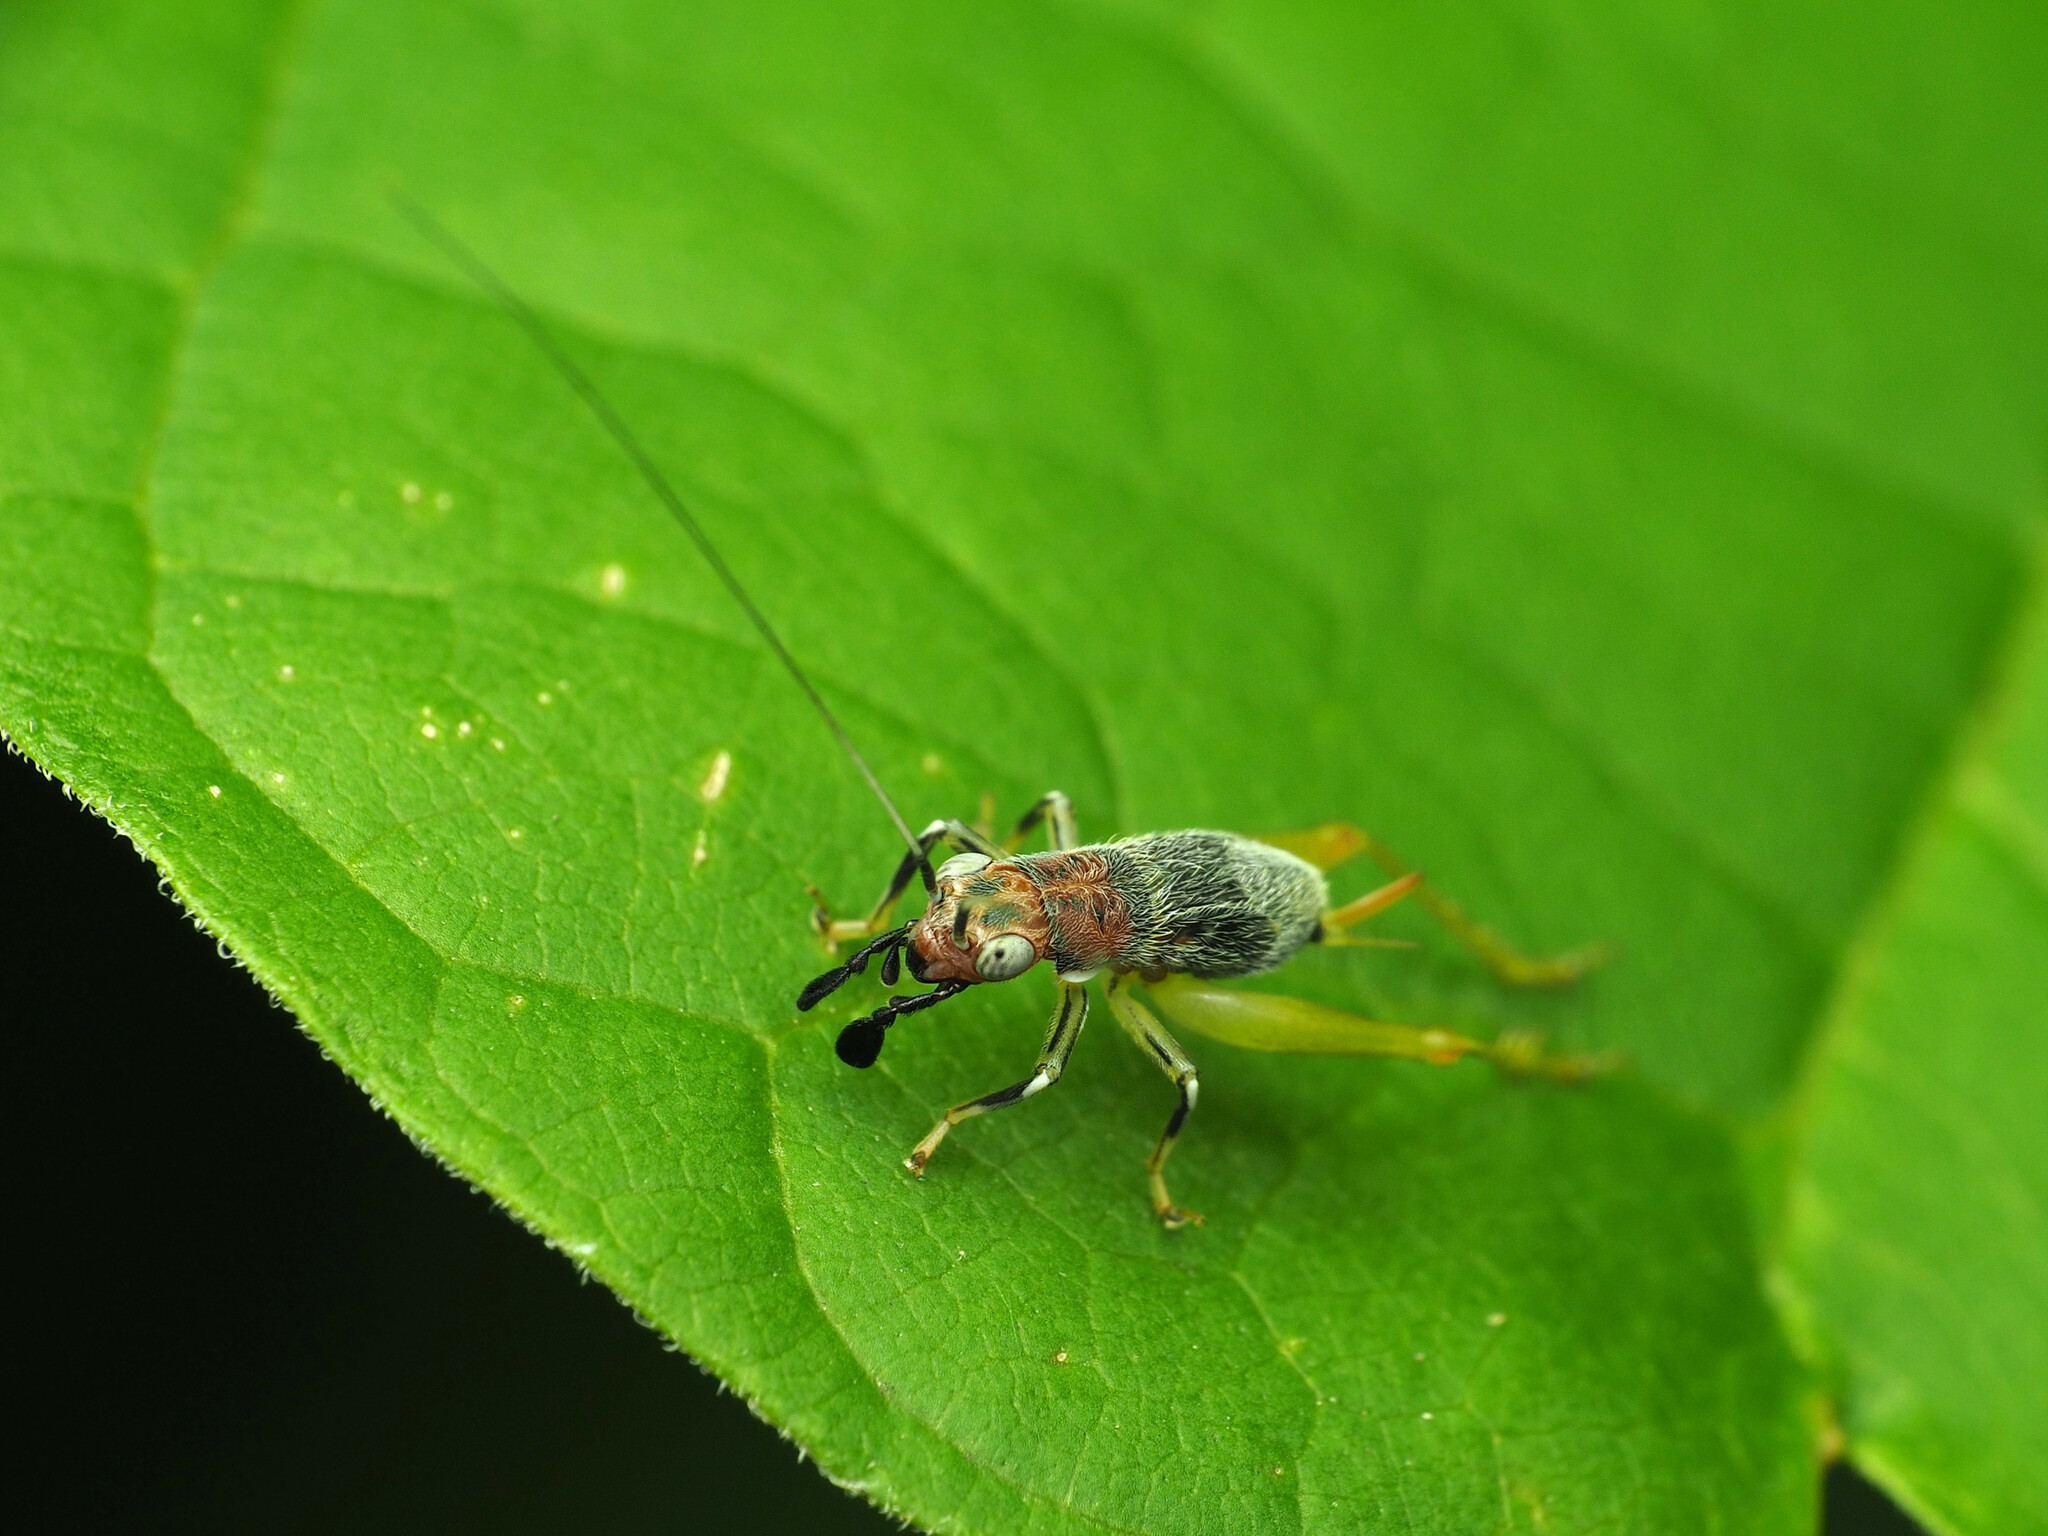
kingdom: Animalia
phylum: Arthropoda
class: Insecta
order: Orthoptera
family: Trigonidiidae
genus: Phyllopalpus
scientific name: Phyllopalpus pulchellus
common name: Handsome trig
